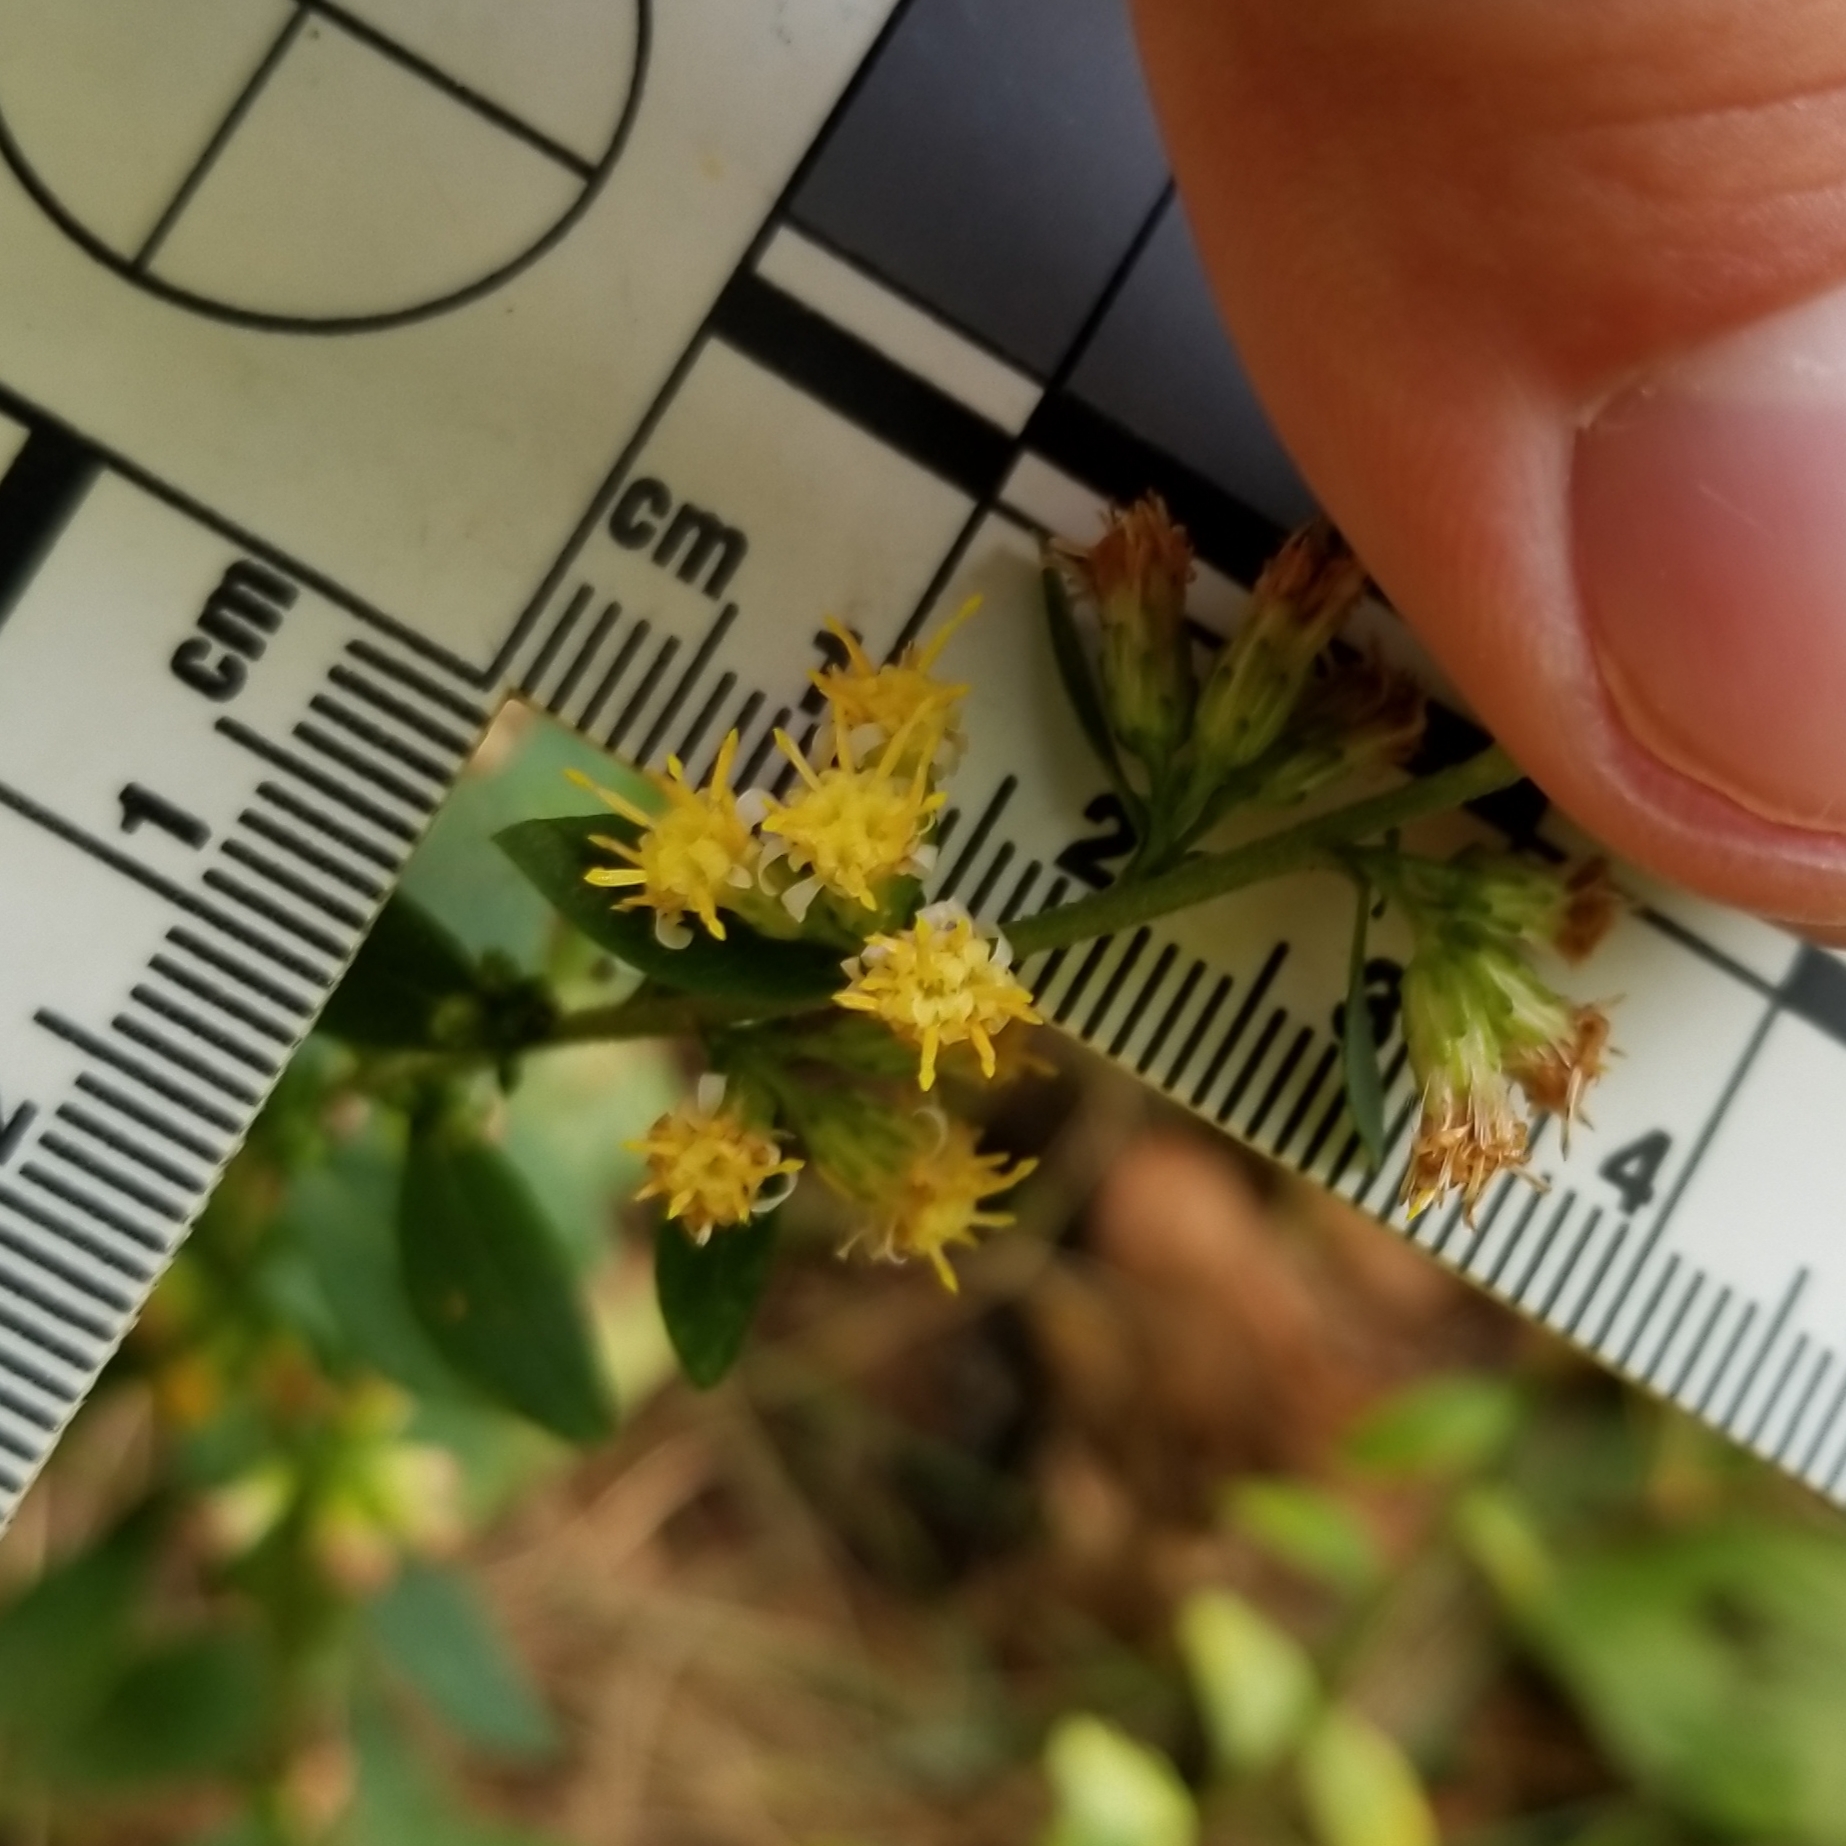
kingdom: Plantae
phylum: Tracheophyta
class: Magnoliopsida
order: Asterales
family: Asteraceae
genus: Solidago
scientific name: Solidago bicolor
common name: Silverrod
